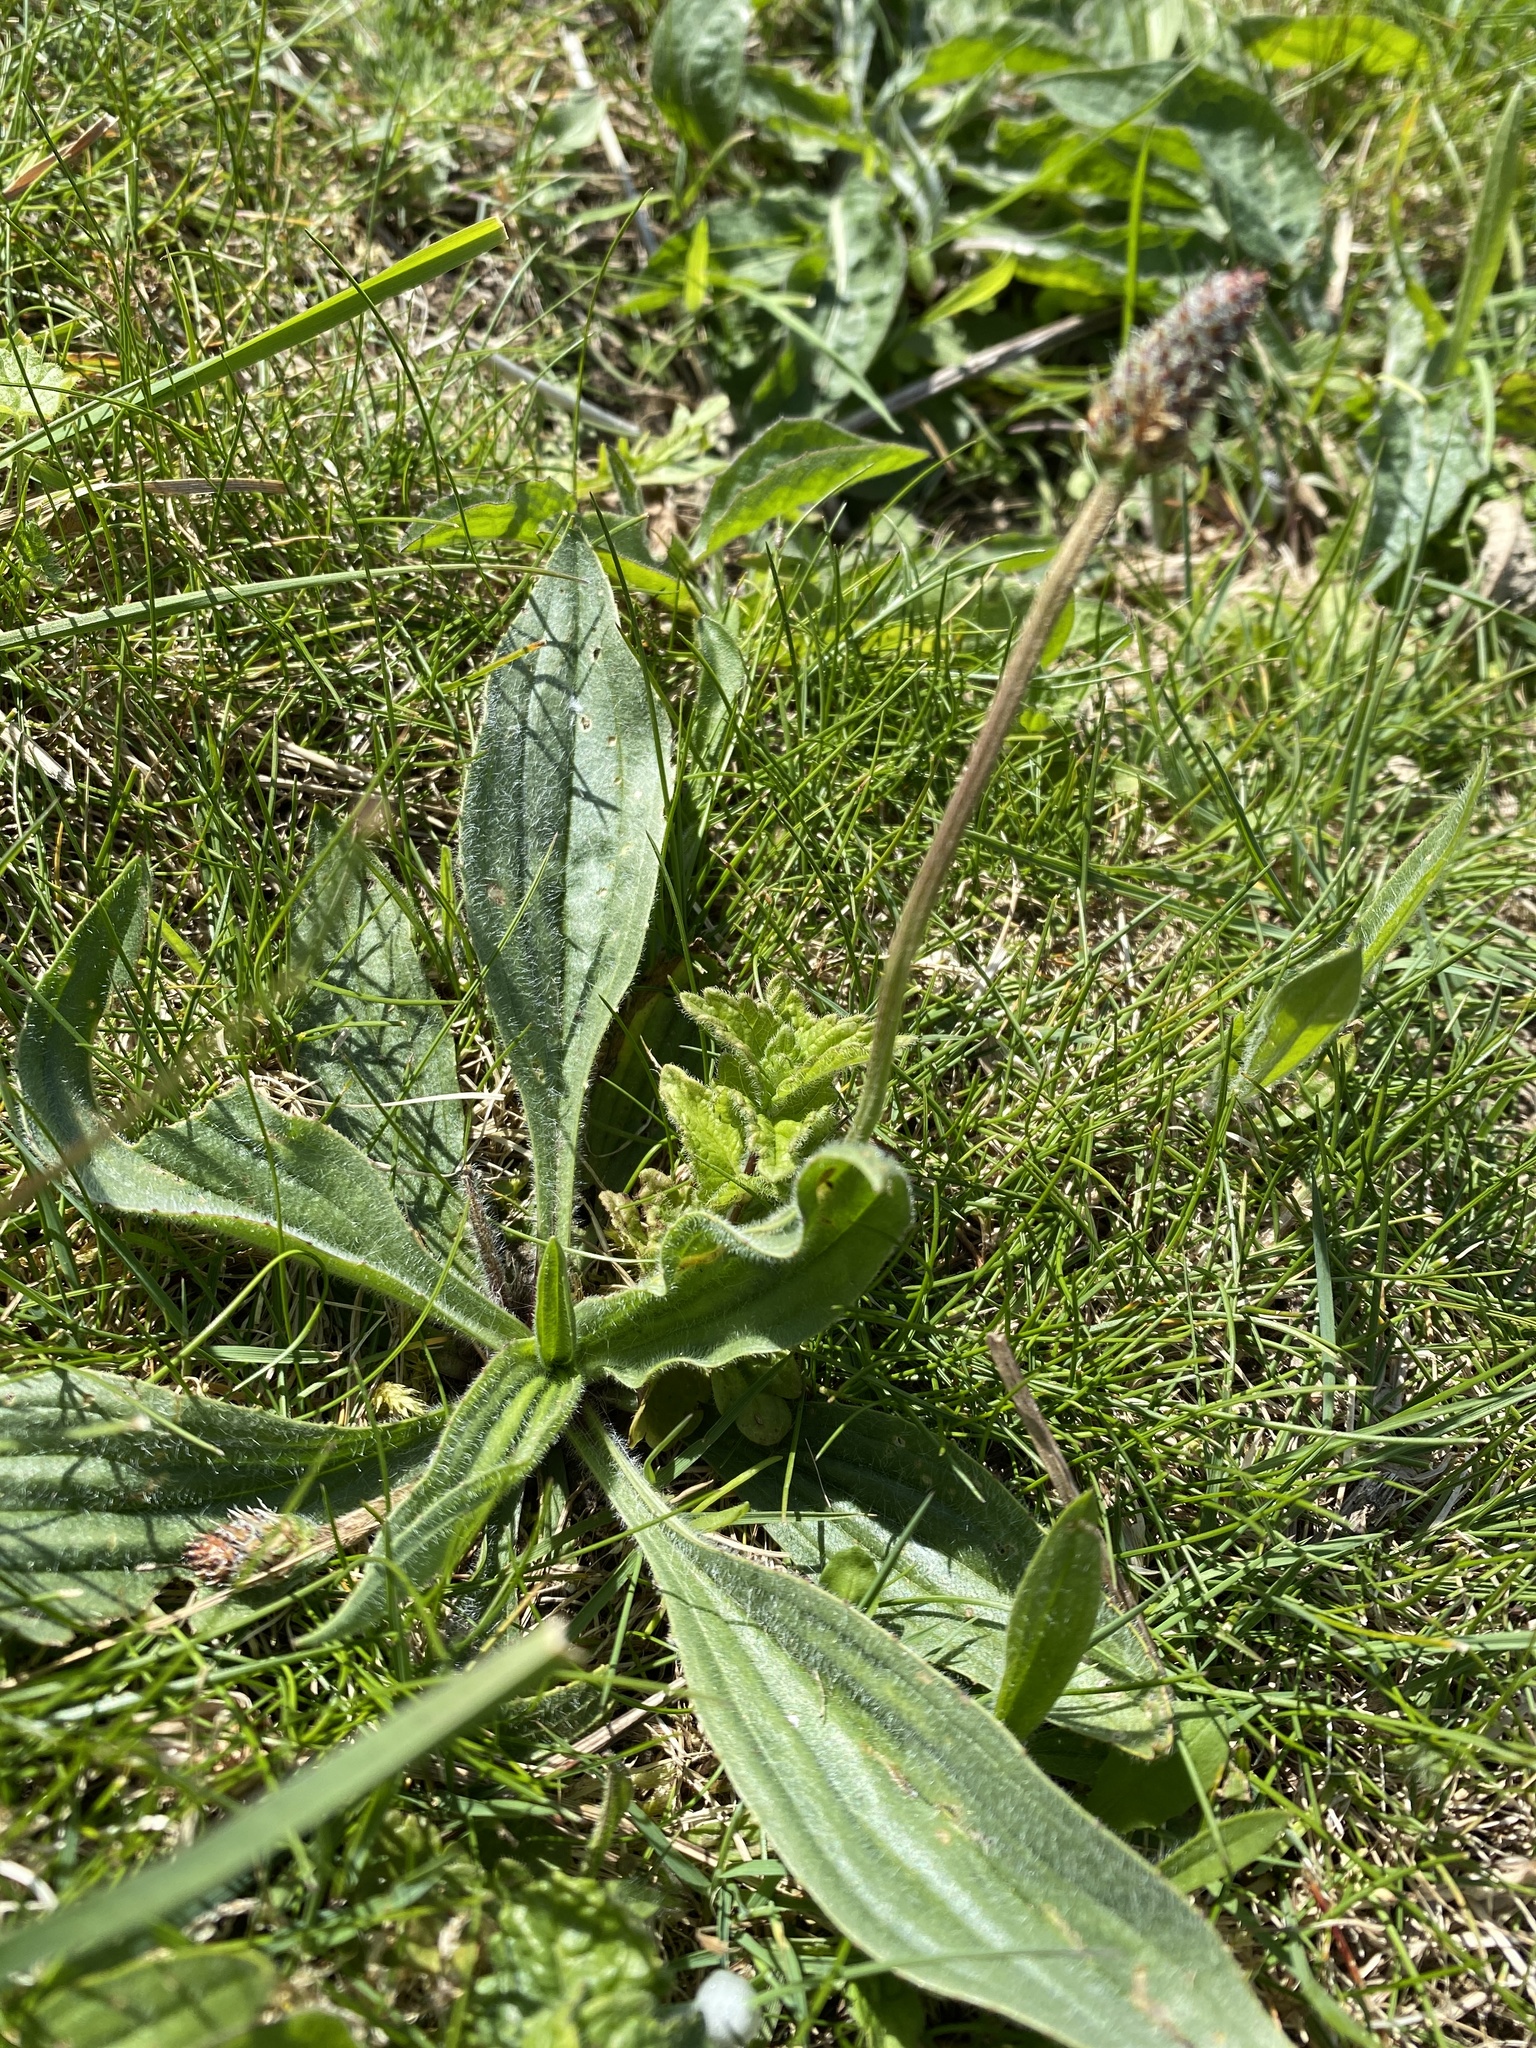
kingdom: Plantae
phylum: Tracheophyta
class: Magnoliopsida
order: Lamiales
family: Plantaginaceae
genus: Plantago
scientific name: Plantago lanceolata
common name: Ribwort plantain
